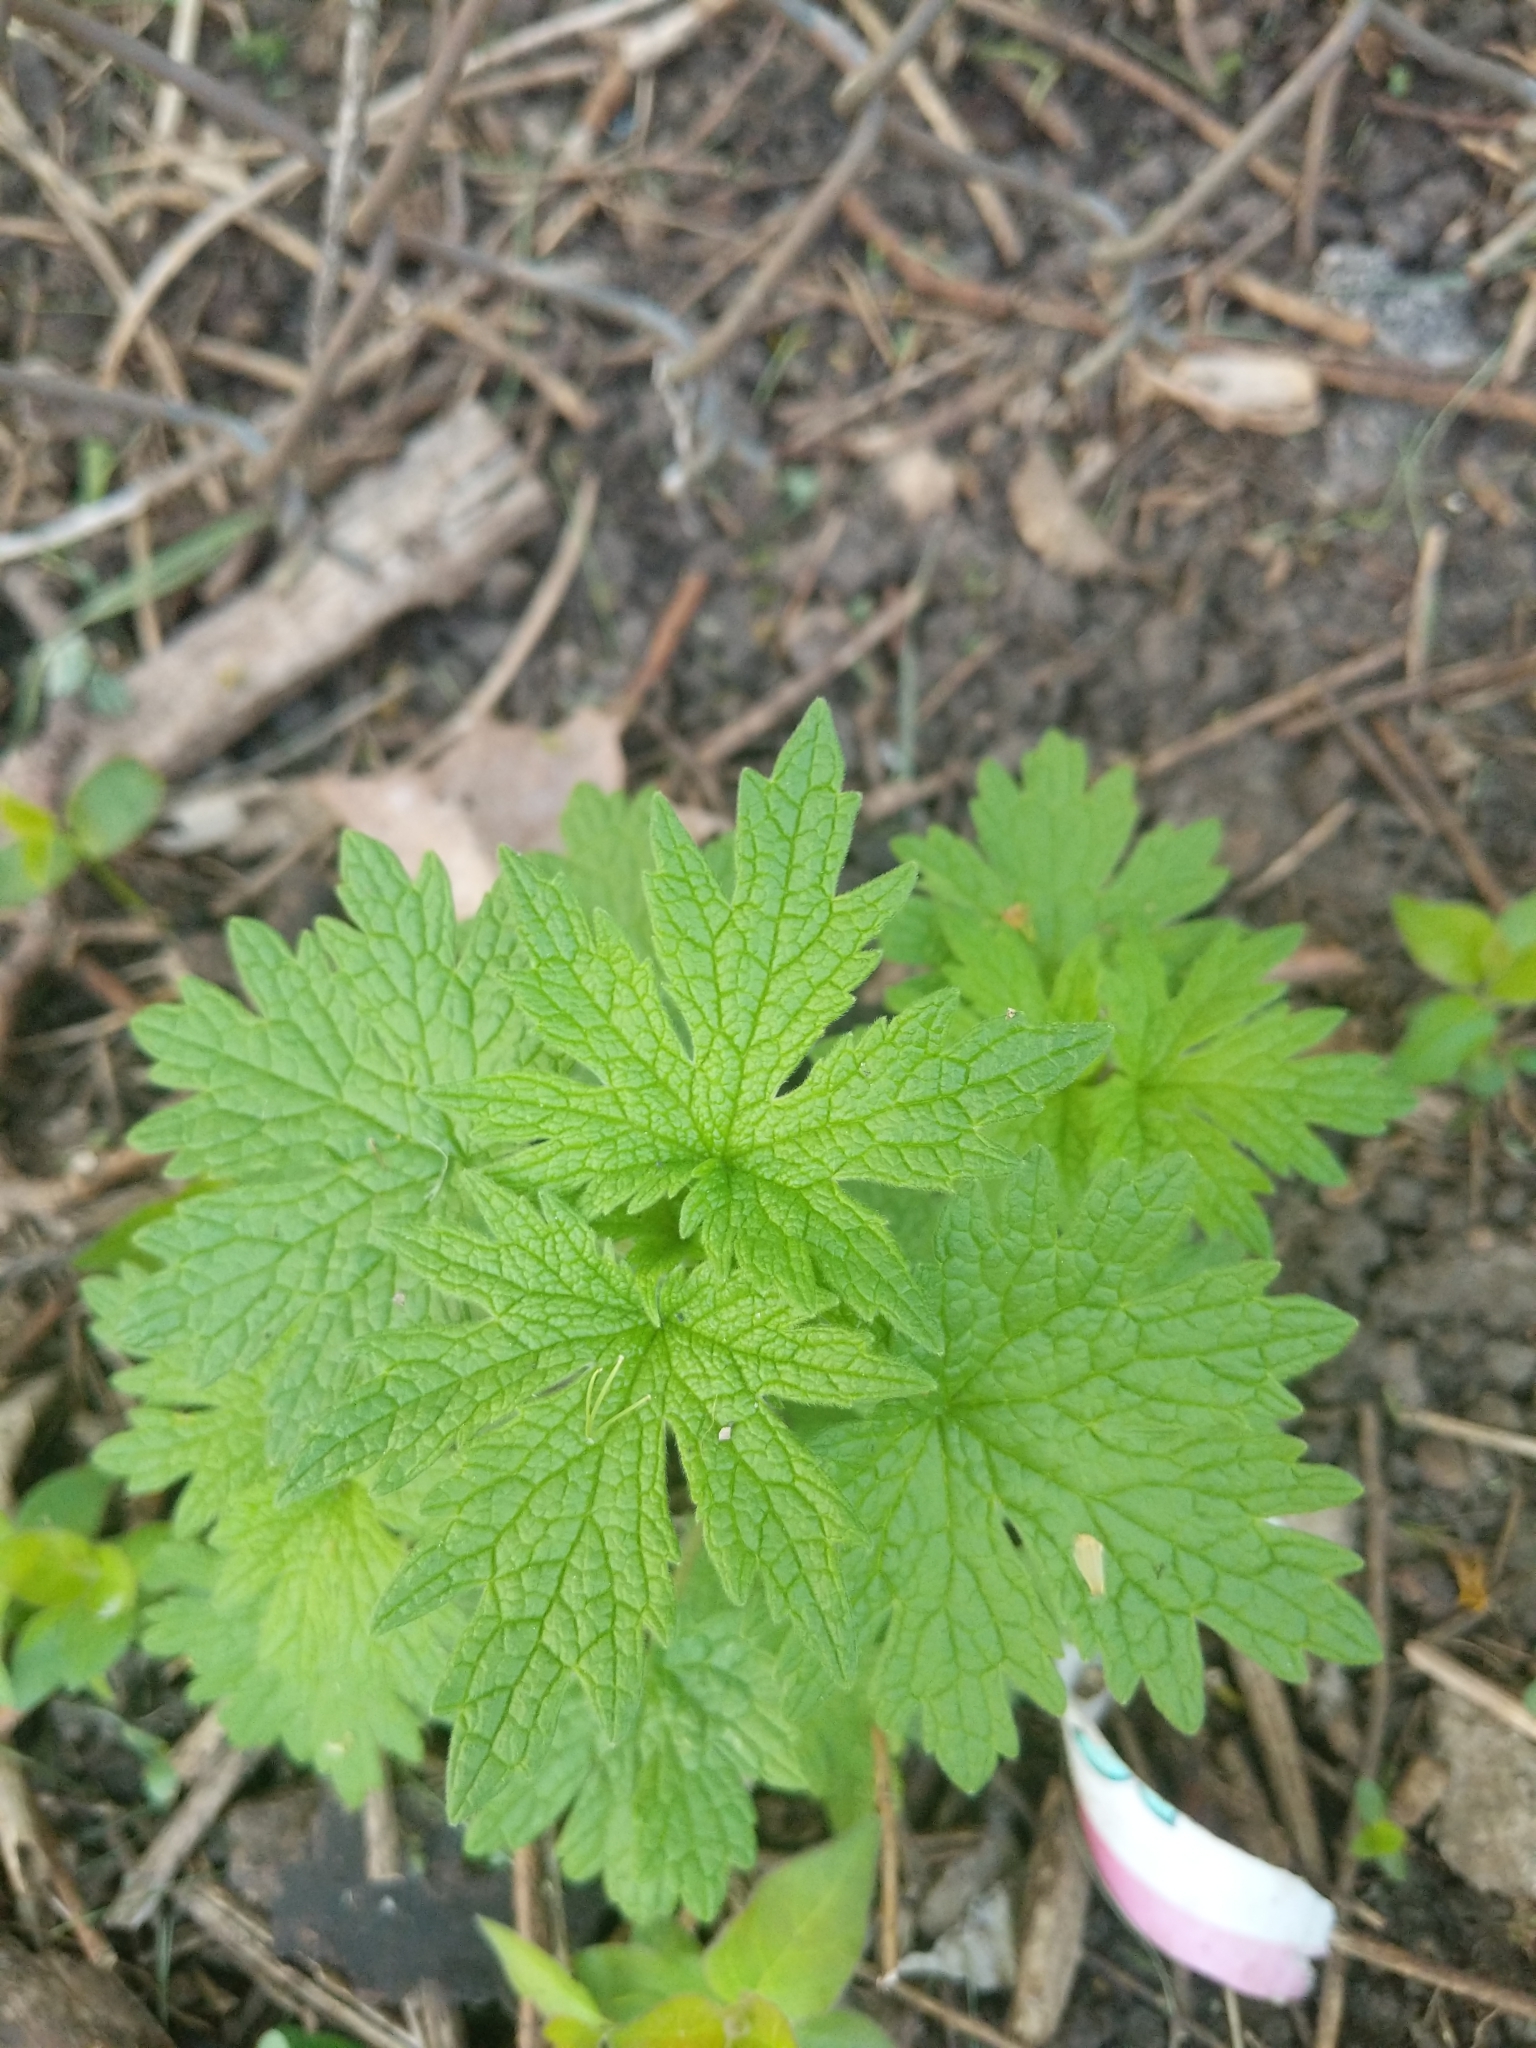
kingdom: Plantae
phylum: Tracheophyta
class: Magnoliopsida
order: Lamiales
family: Lamiaceae
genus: Leonurus
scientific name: Leonurus cardiaca
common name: Motherwort
